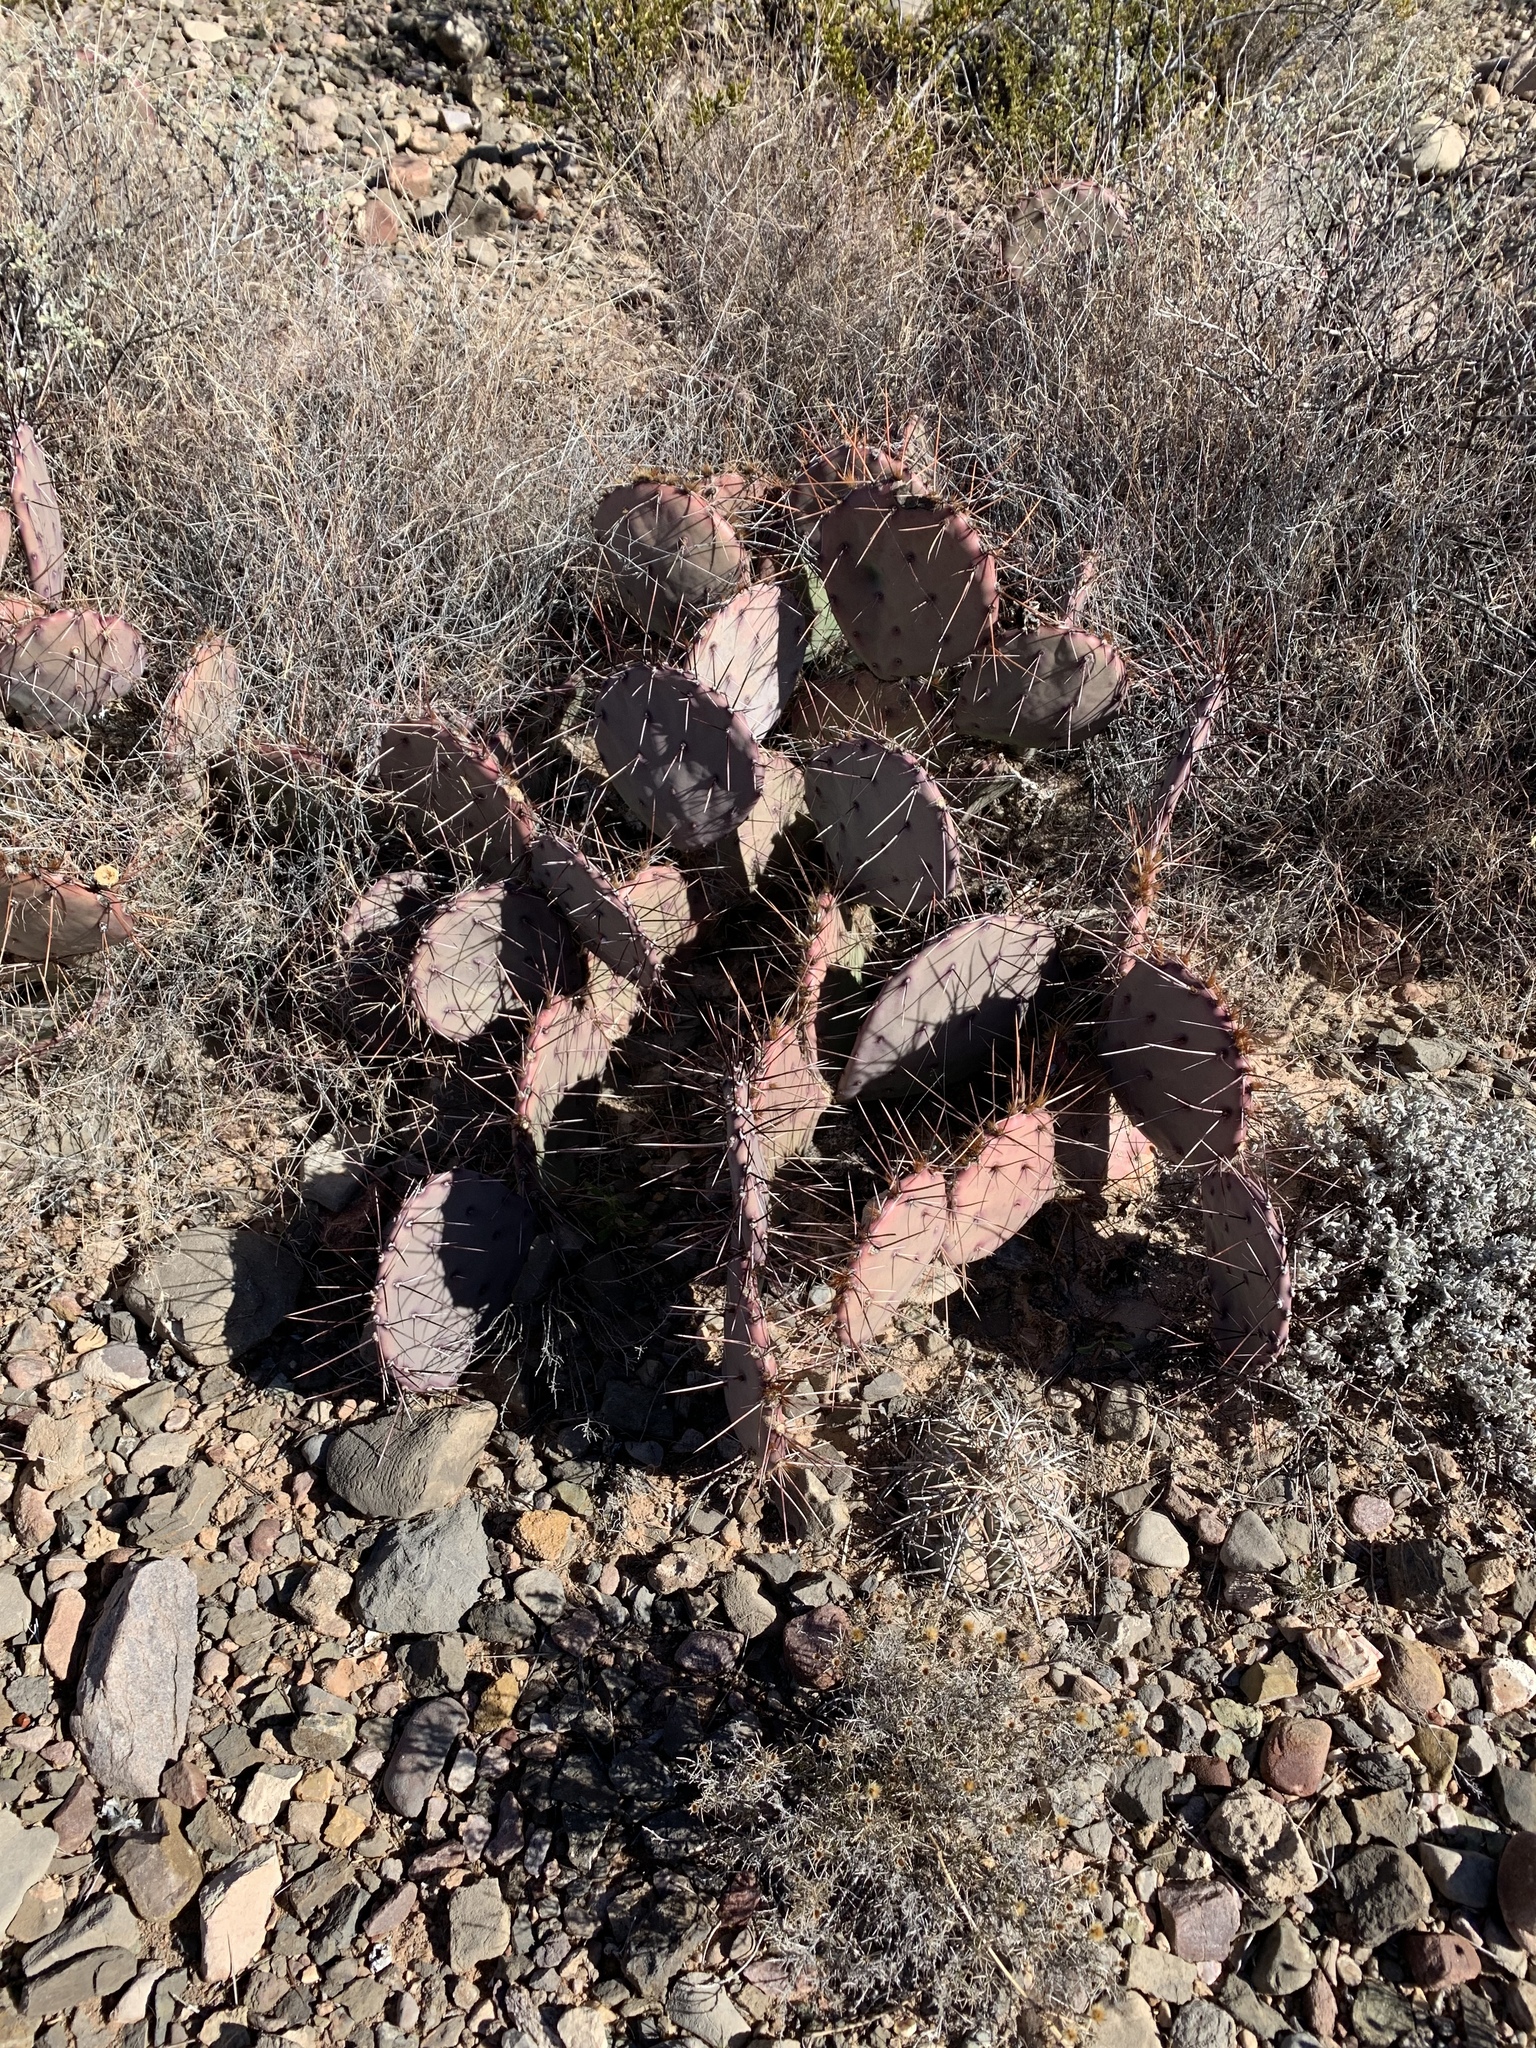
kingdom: Plantae
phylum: Tracheophyta
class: Magnoliopsida
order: Caryophyllales
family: Cactaceae
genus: Opuntia
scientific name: Opuntia macrocentra
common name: Purple prickly-pear
